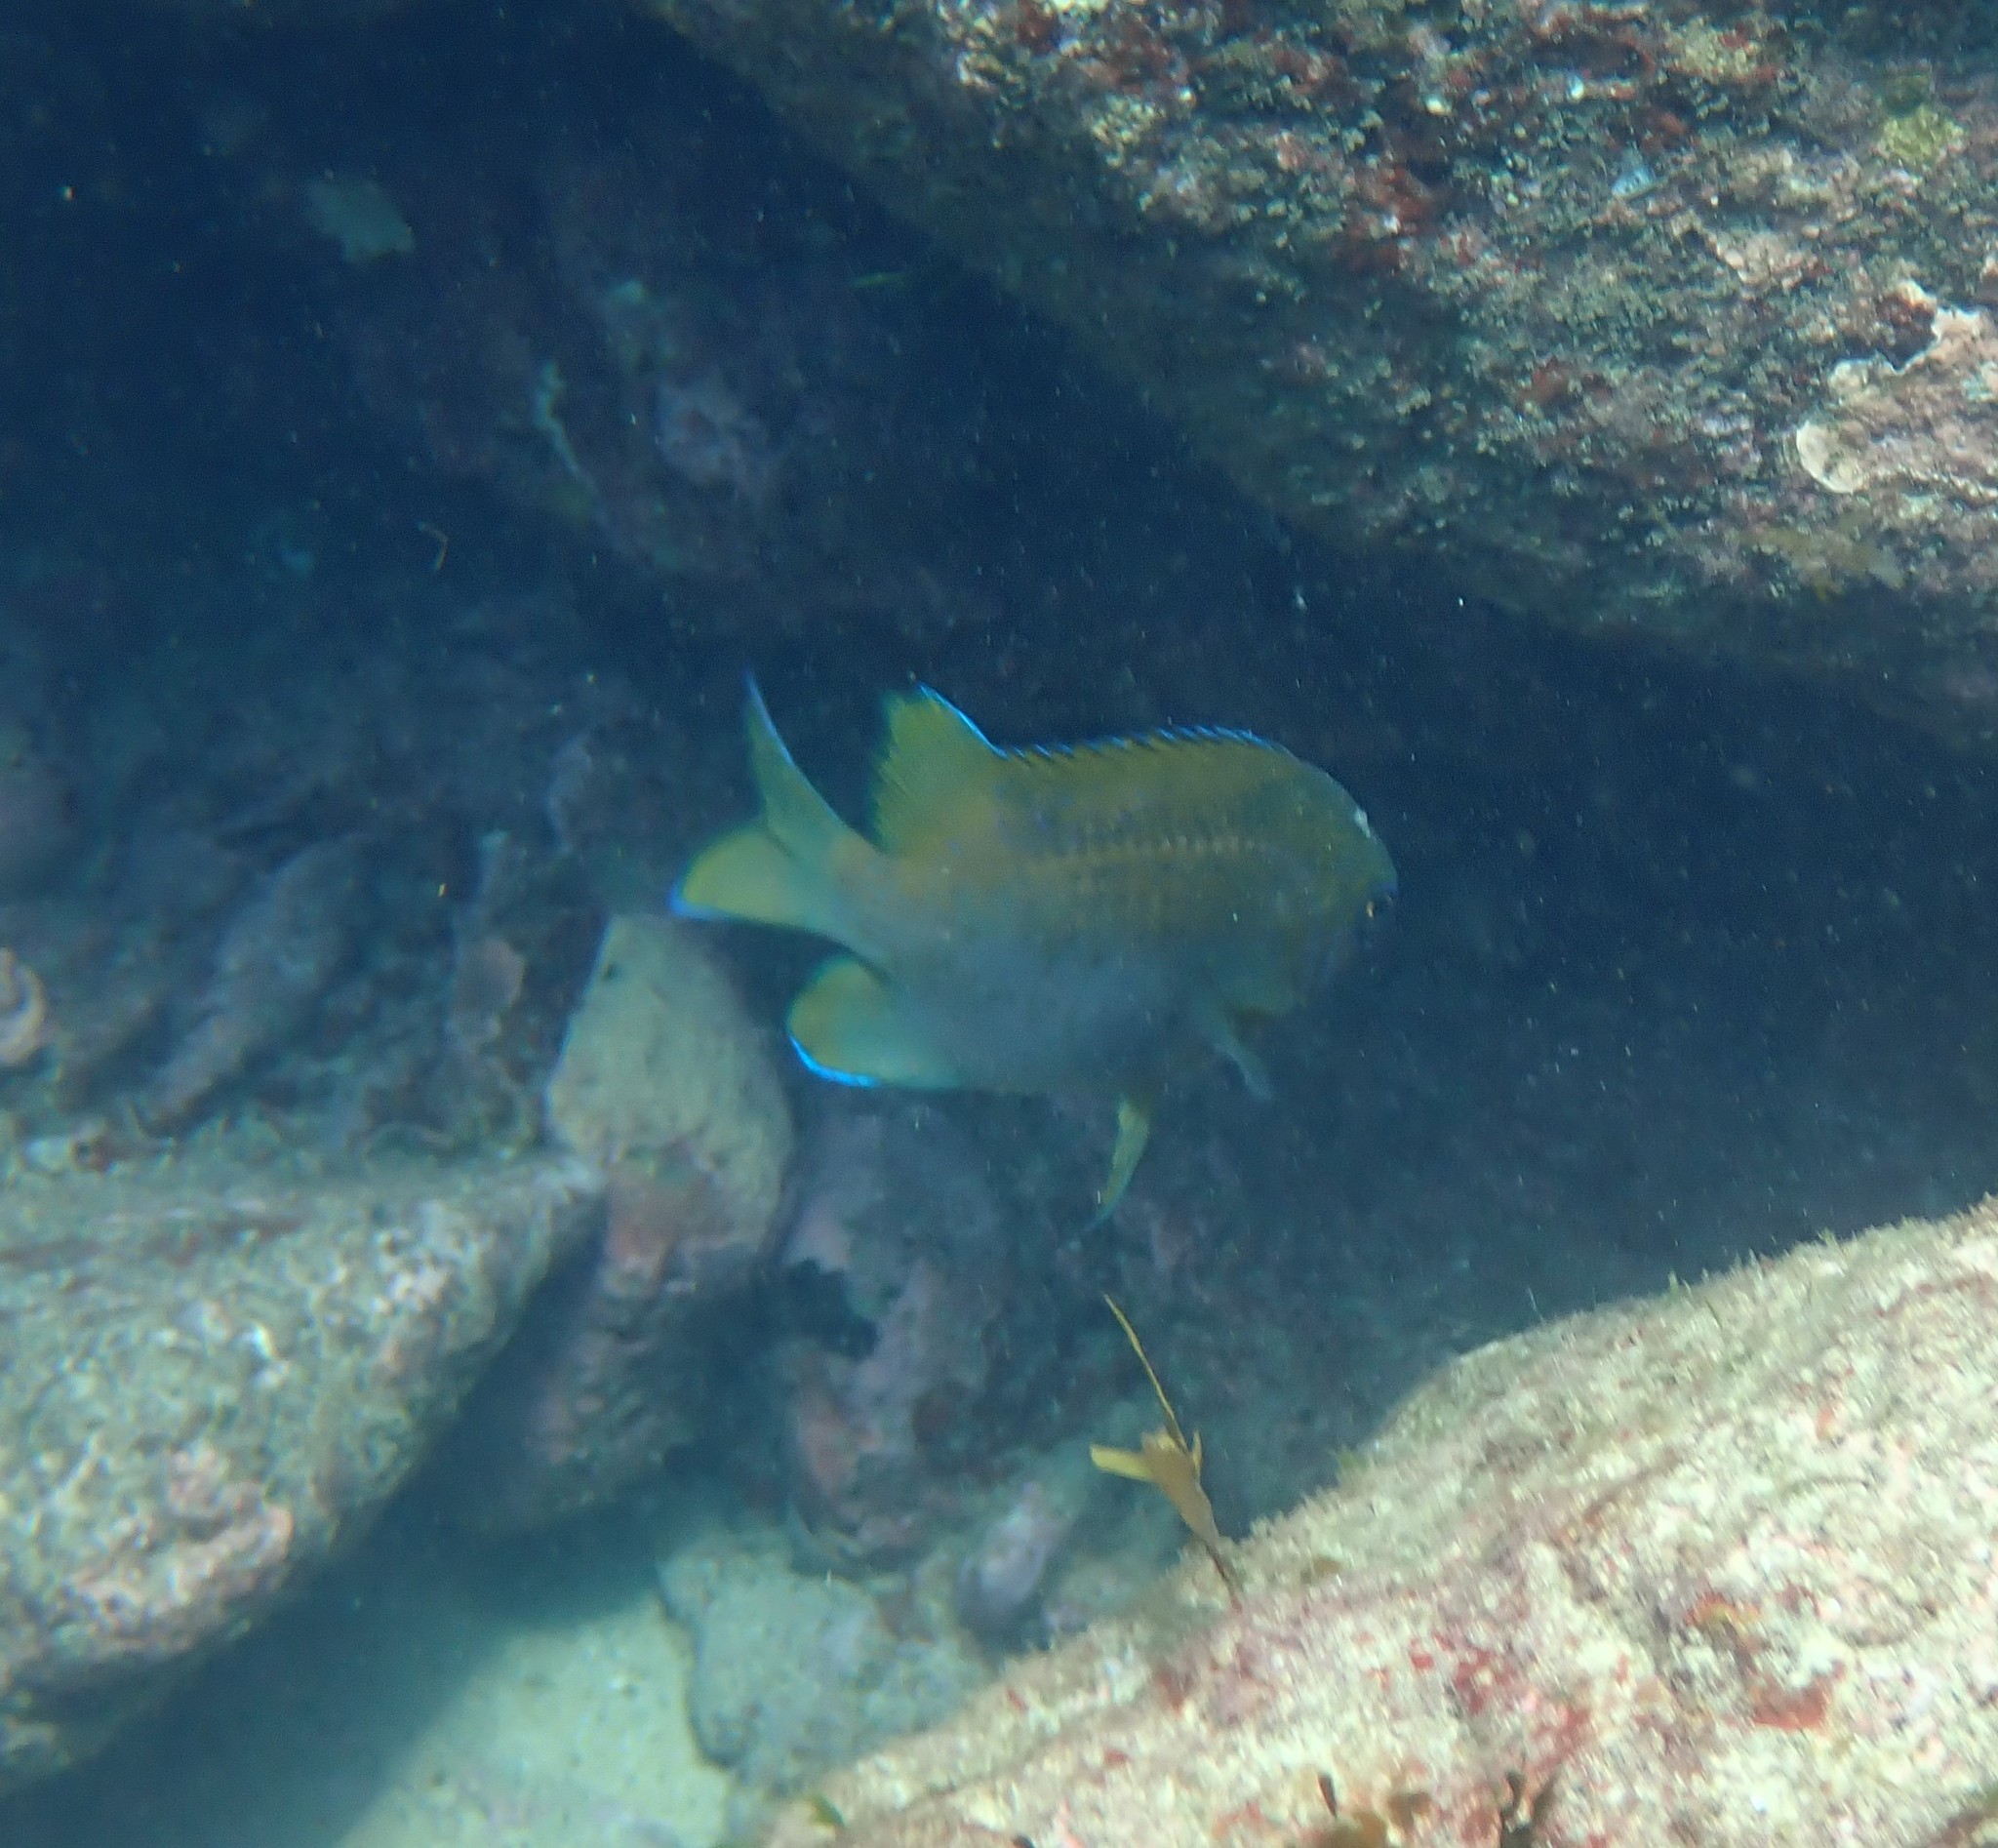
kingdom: Animalia
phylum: Chordata
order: Perciformes
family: Pomacentridae
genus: Parma
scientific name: Parma victoriae
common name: Rock perch
